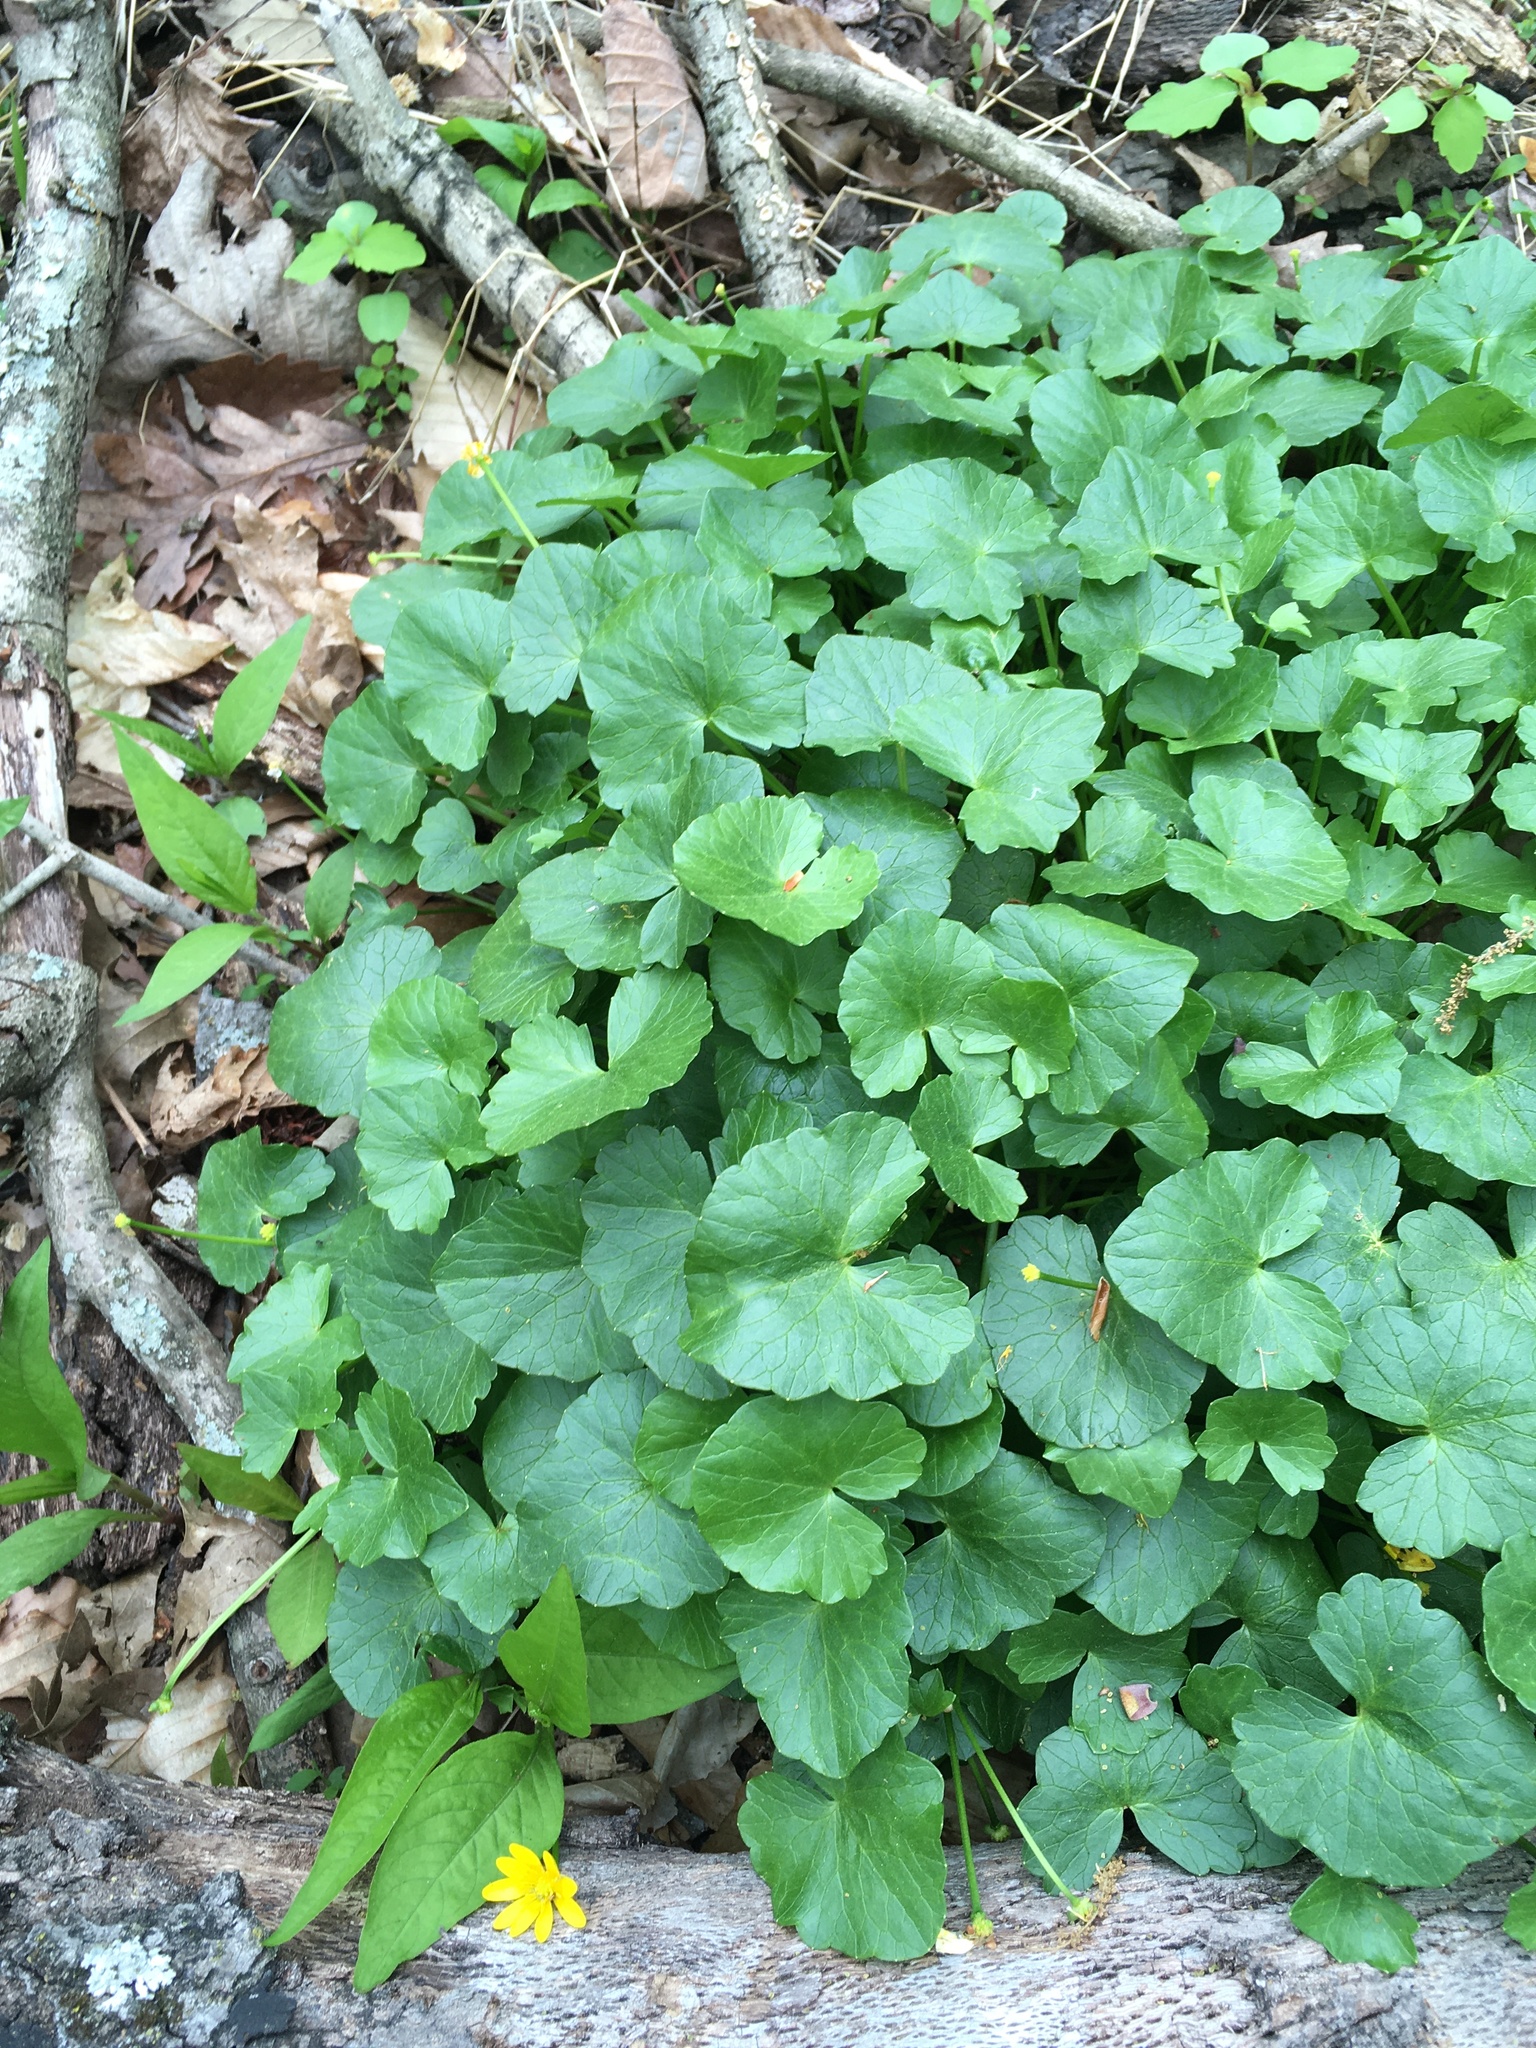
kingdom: Plantae
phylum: Tracheophyta
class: Magnoliopsida
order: Ranunculales
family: Ranunculaceae
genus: Ficaria
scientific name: Ficaria verna
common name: Lesser celandine
